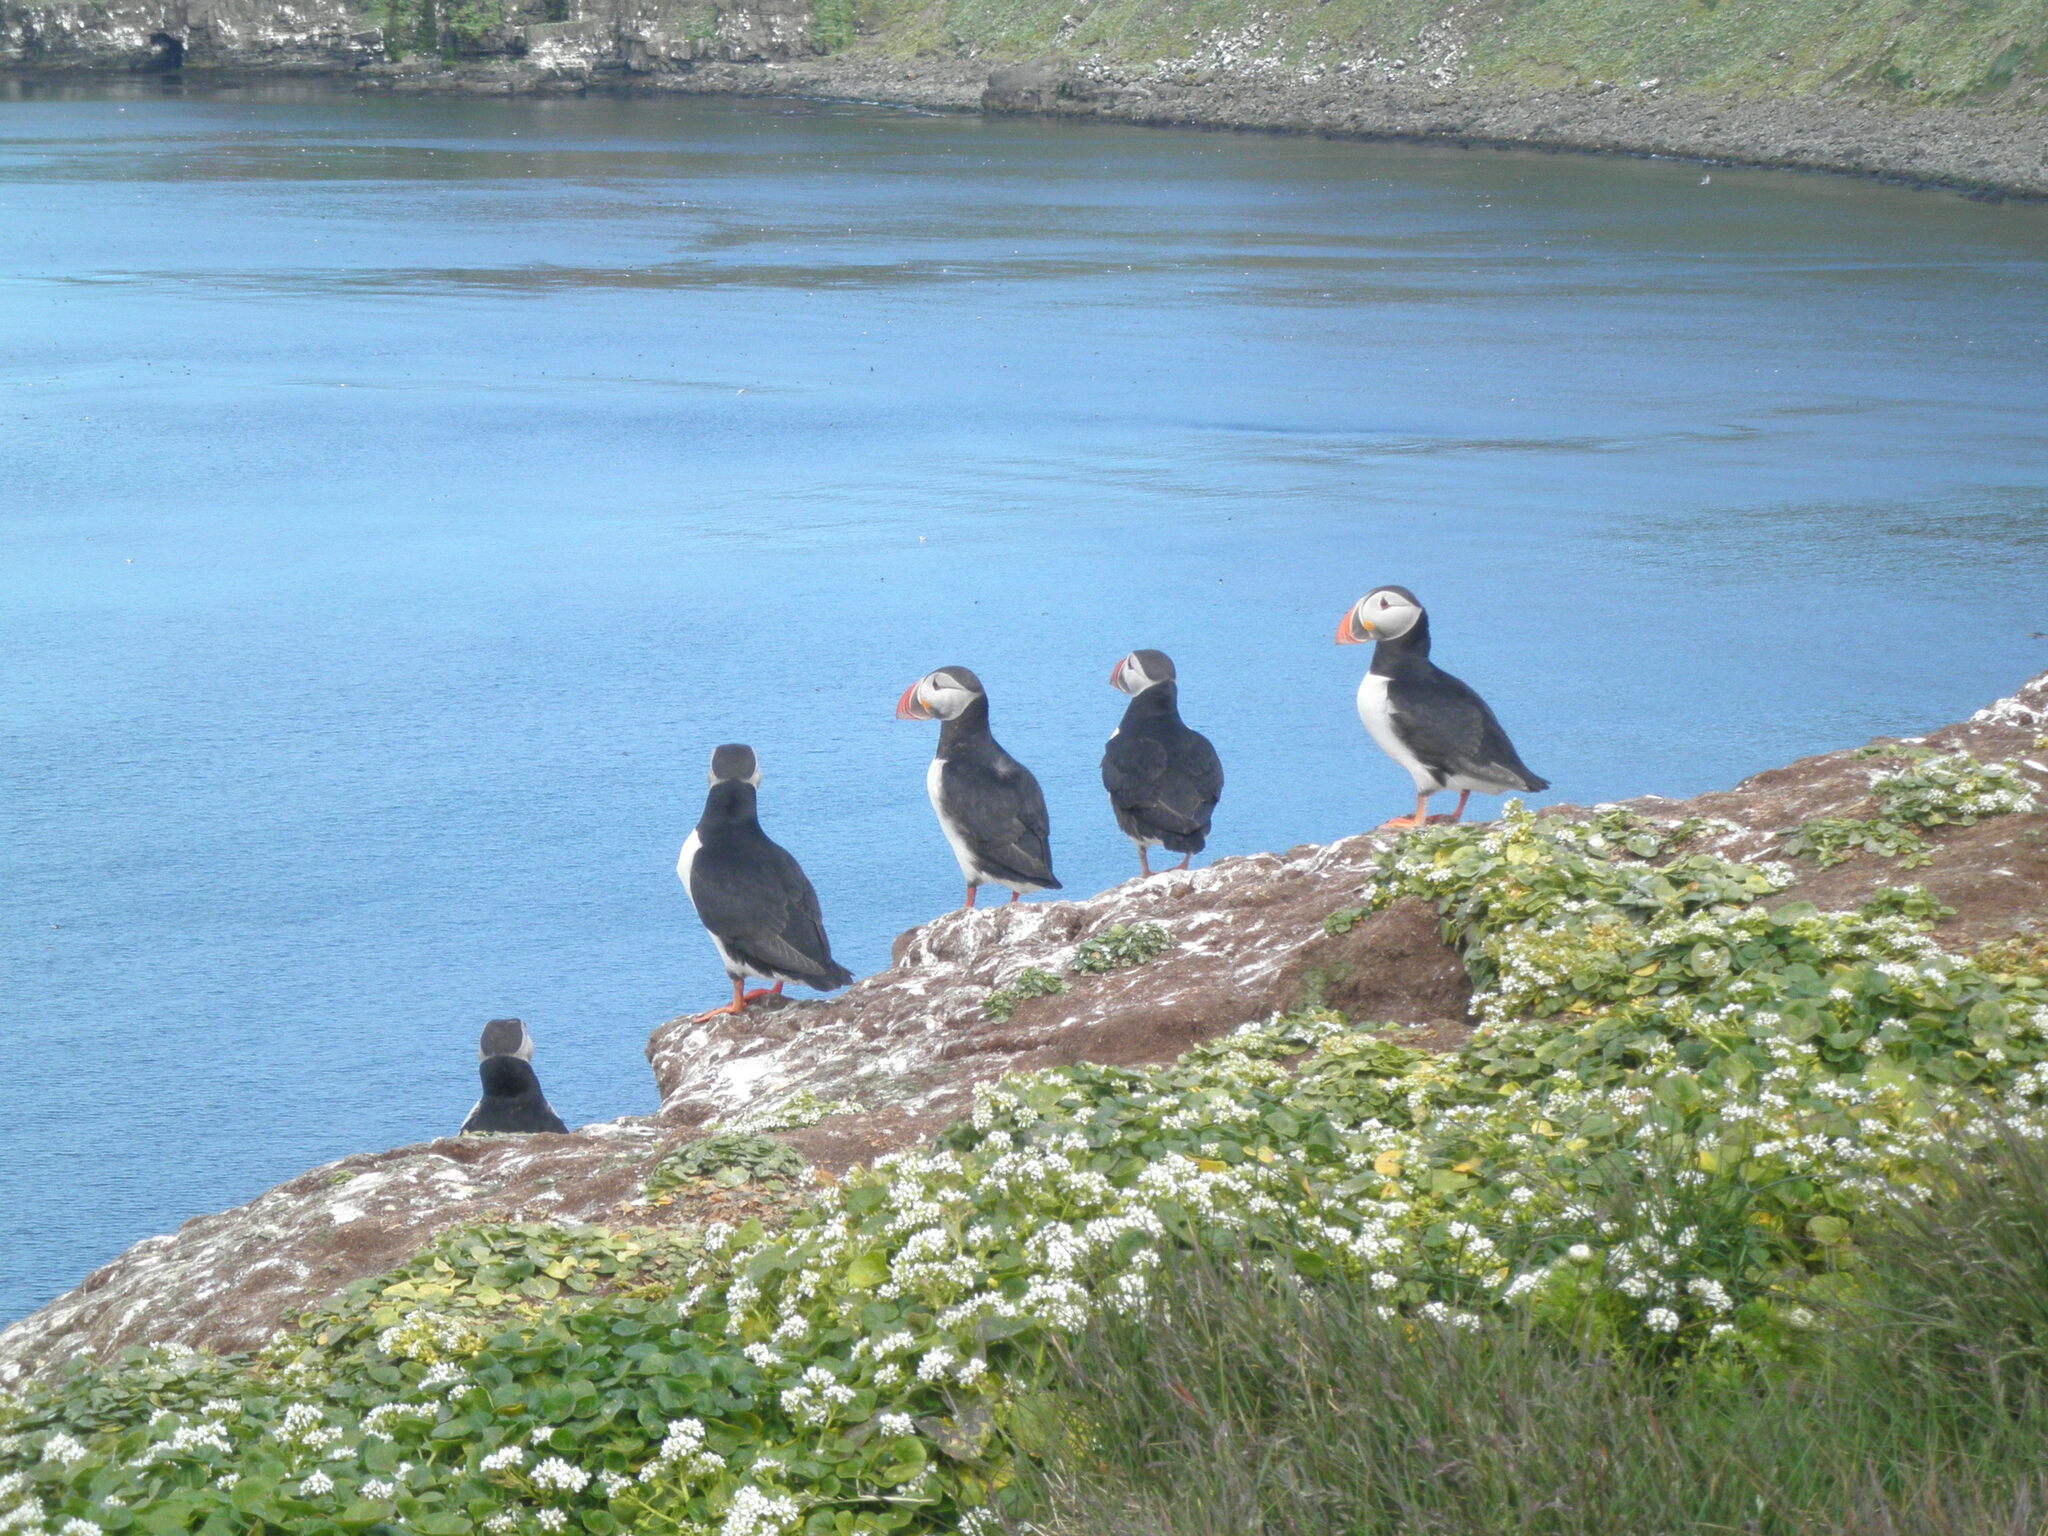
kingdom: Animalia
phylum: Chordata
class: Aves
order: Charadriiformes
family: Alcidae
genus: Fratercula
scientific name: Fratercula arctica
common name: Atlantic puffin
